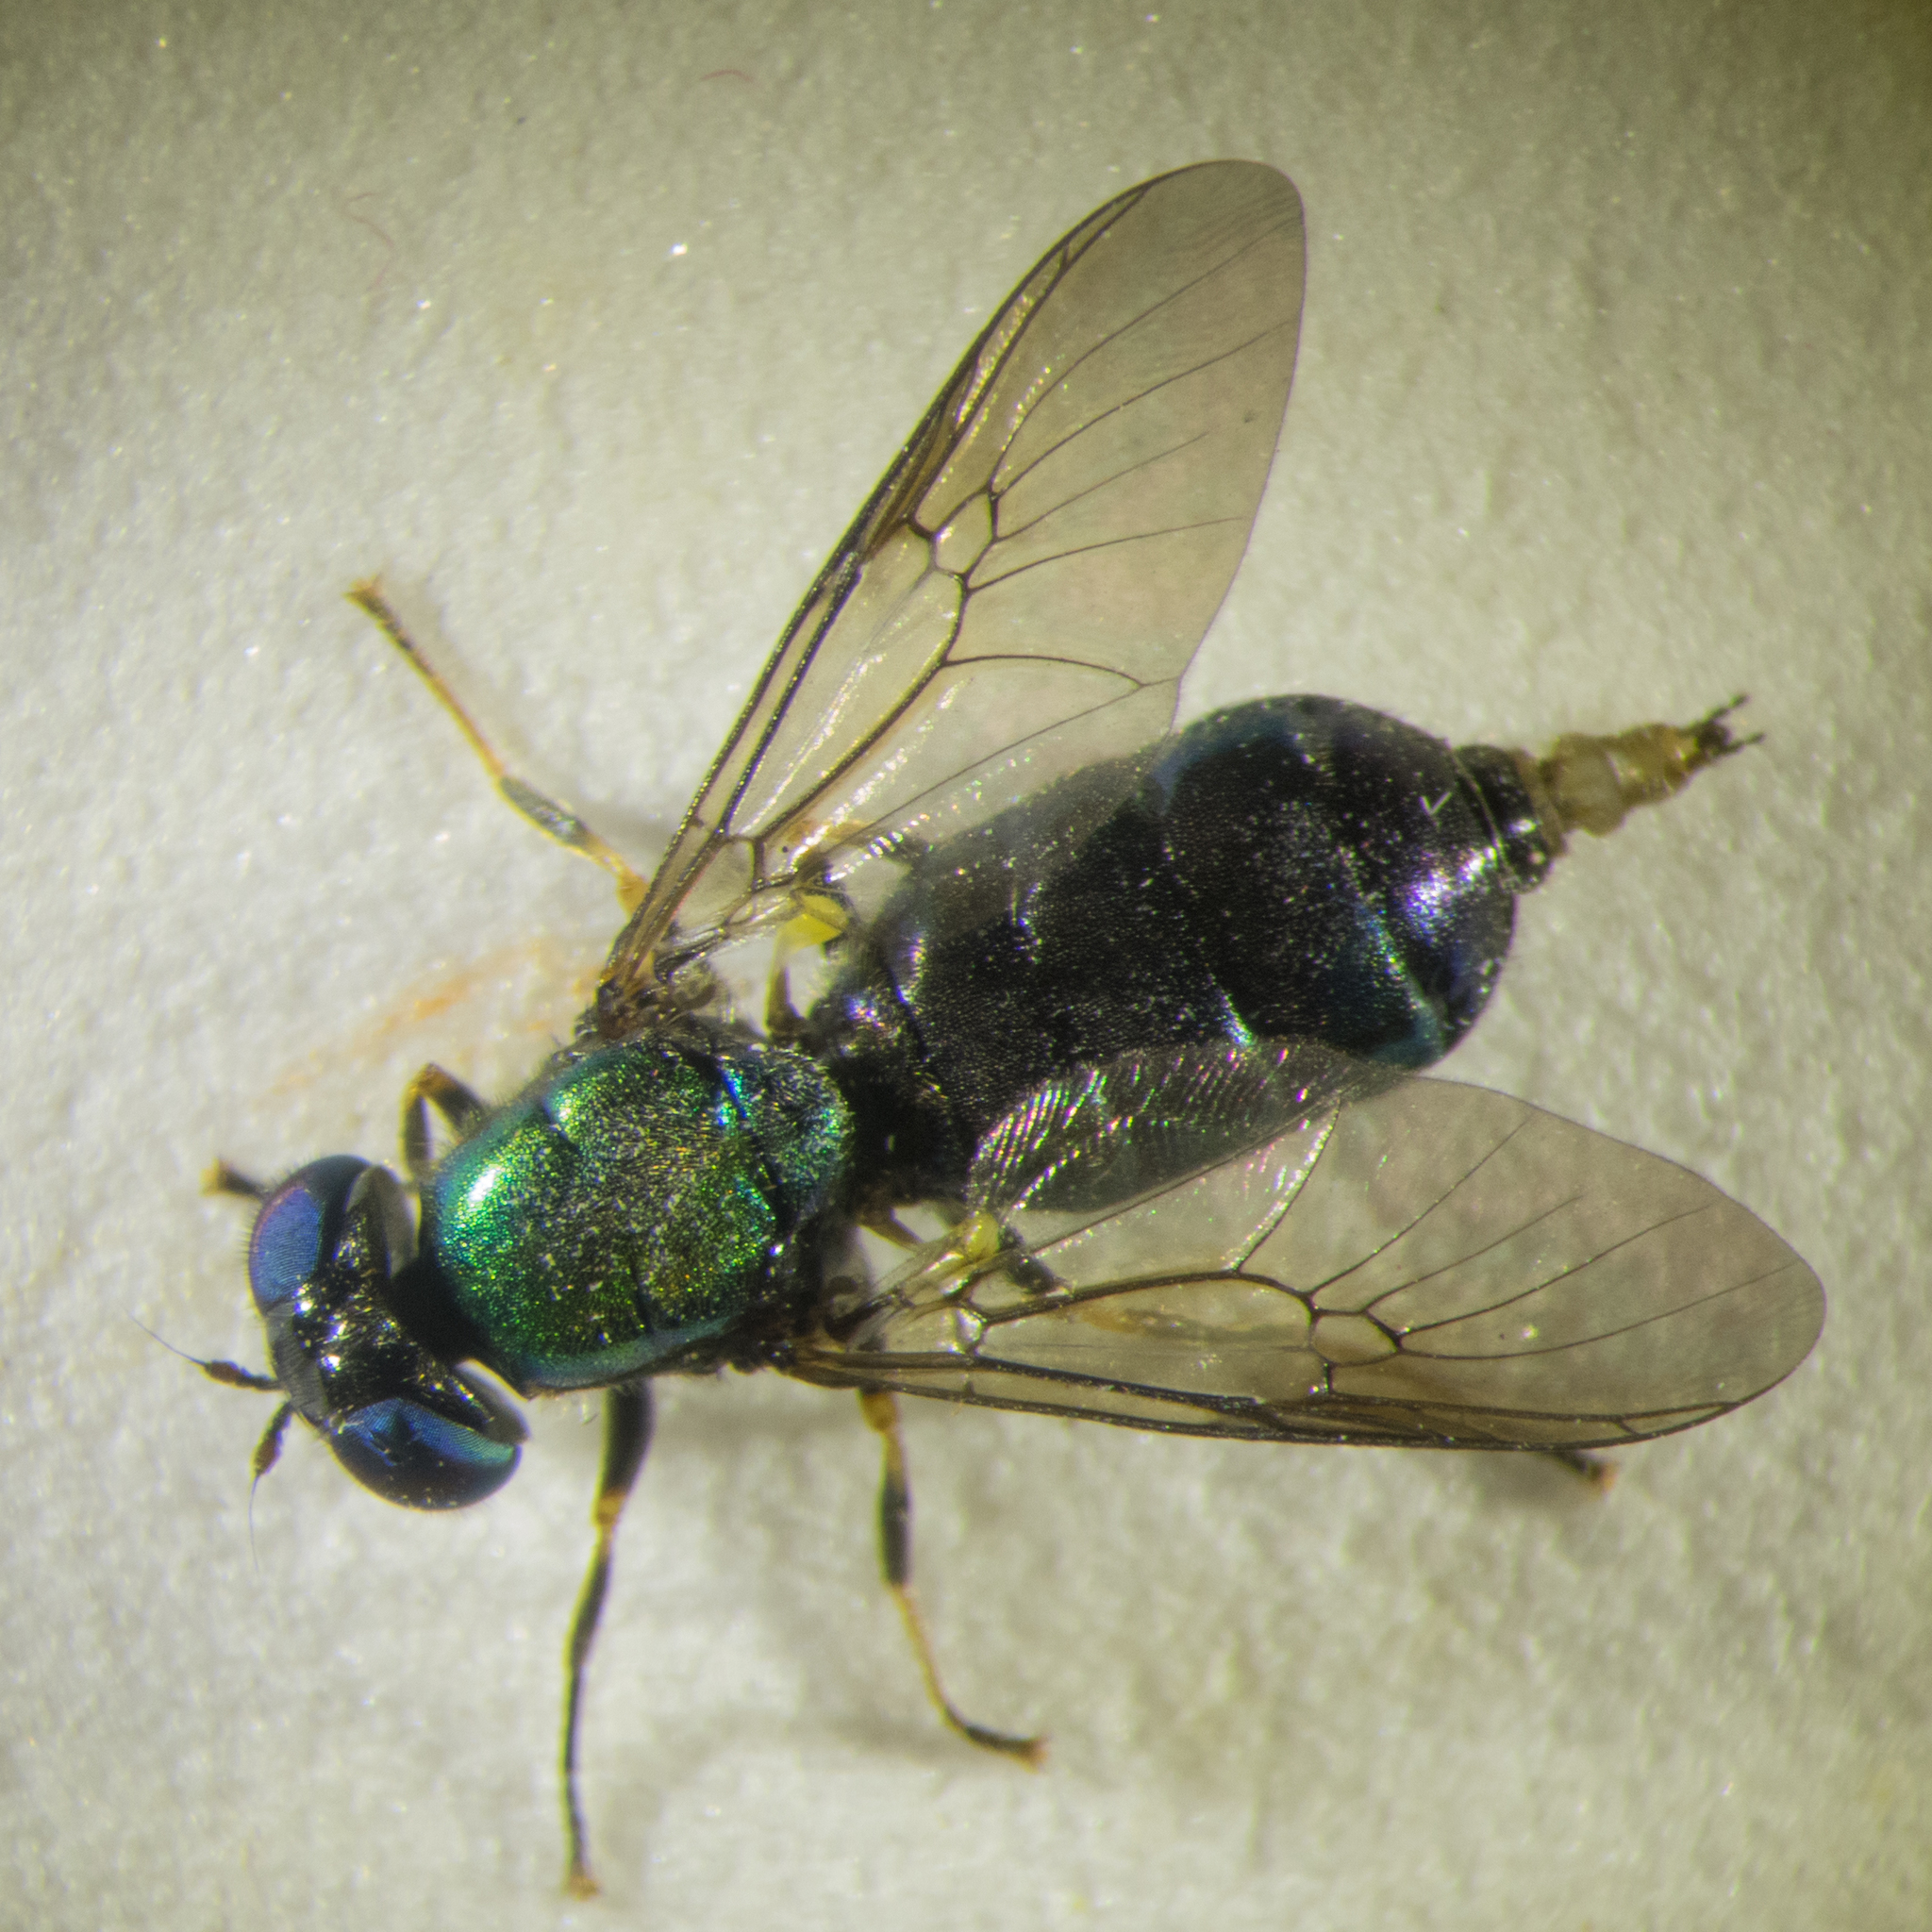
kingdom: Animalia
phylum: Arthropoda
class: Insecta
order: Diptera
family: Stratiomyidae
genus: Chloromyia
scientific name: Chloromyia speciosa
